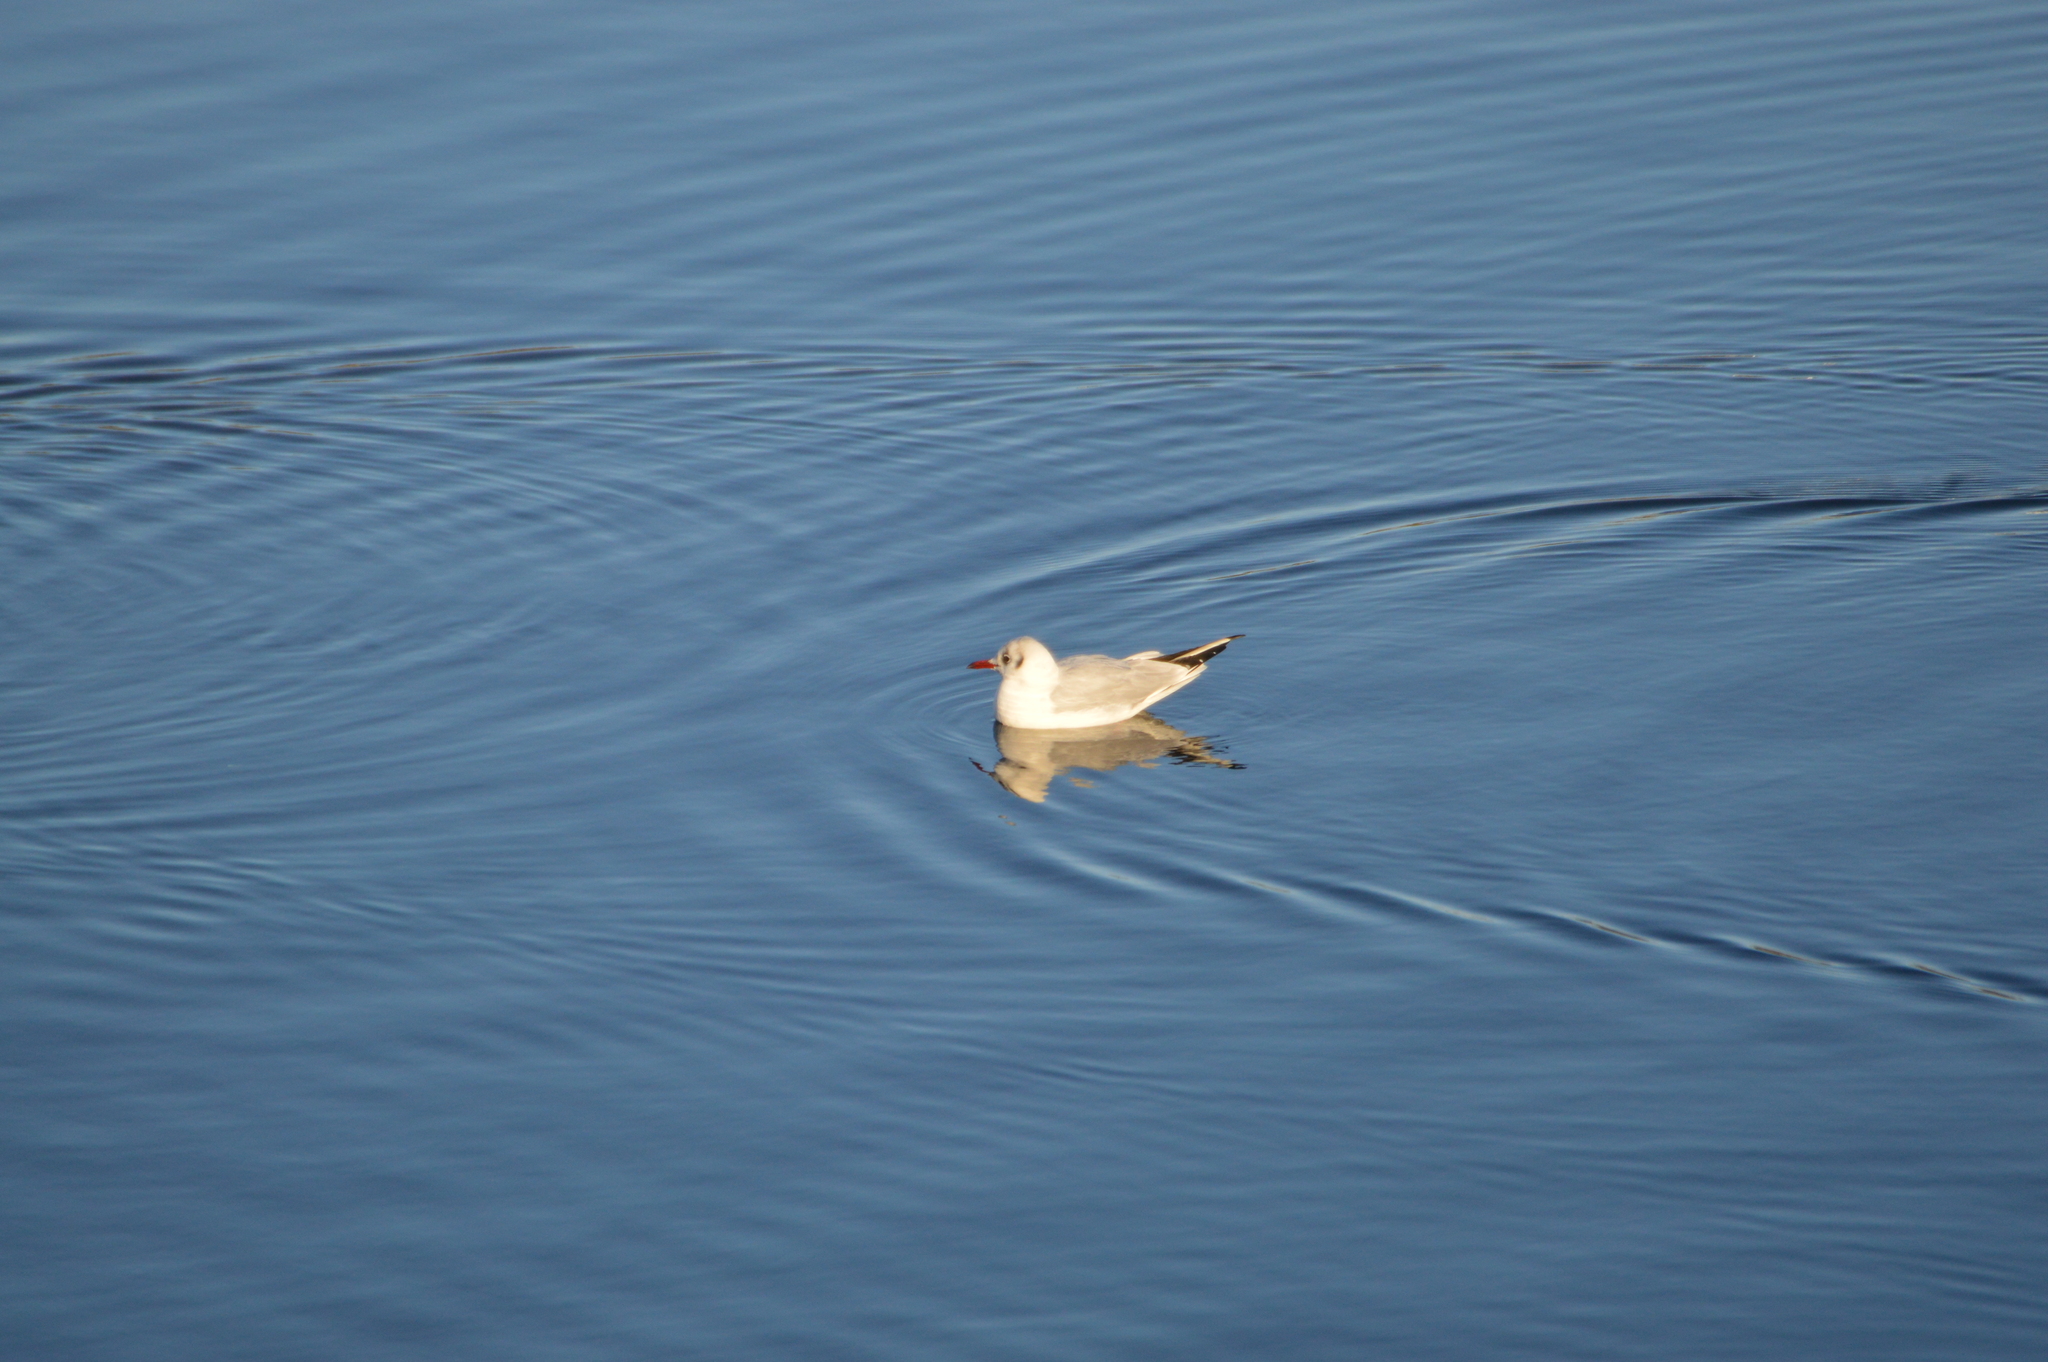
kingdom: Animalia
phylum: Chordata
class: Aves
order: Charadriiformes
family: Laridae
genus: Chroicocephalus
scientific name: Chroicocephalus ridibundus
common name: Black-headed gull
